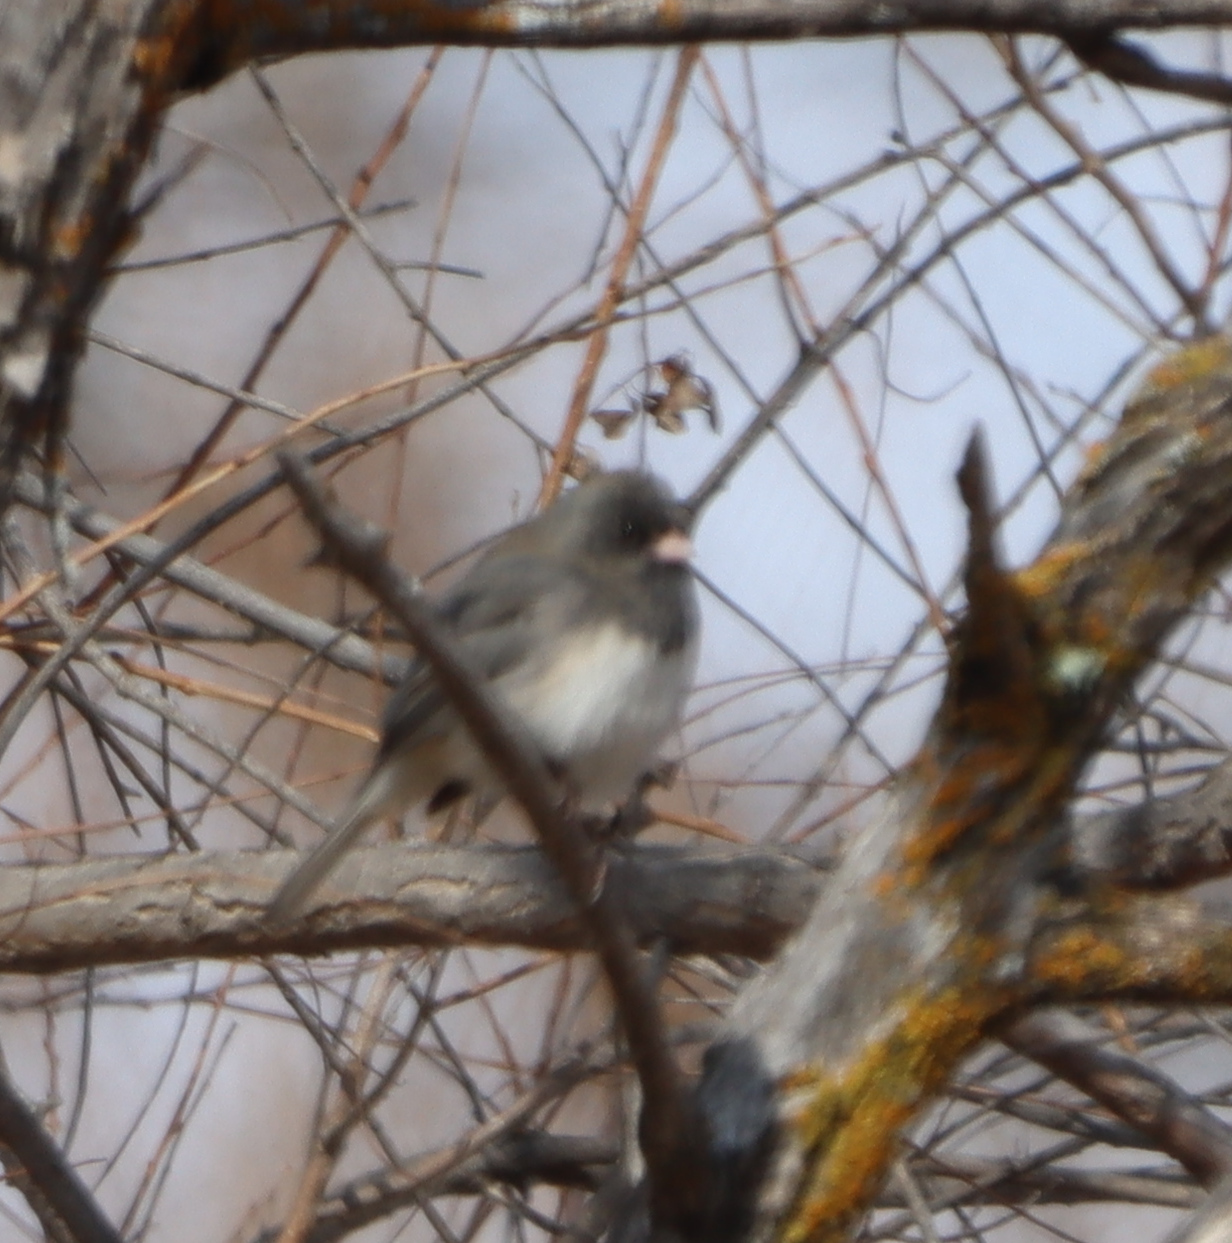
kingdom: Animalia
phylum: Chordata
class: Aves
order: Passeriformes
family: Passerellidae
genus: Junco
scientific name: Junco hyemalis
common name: Dark-eyed junco
